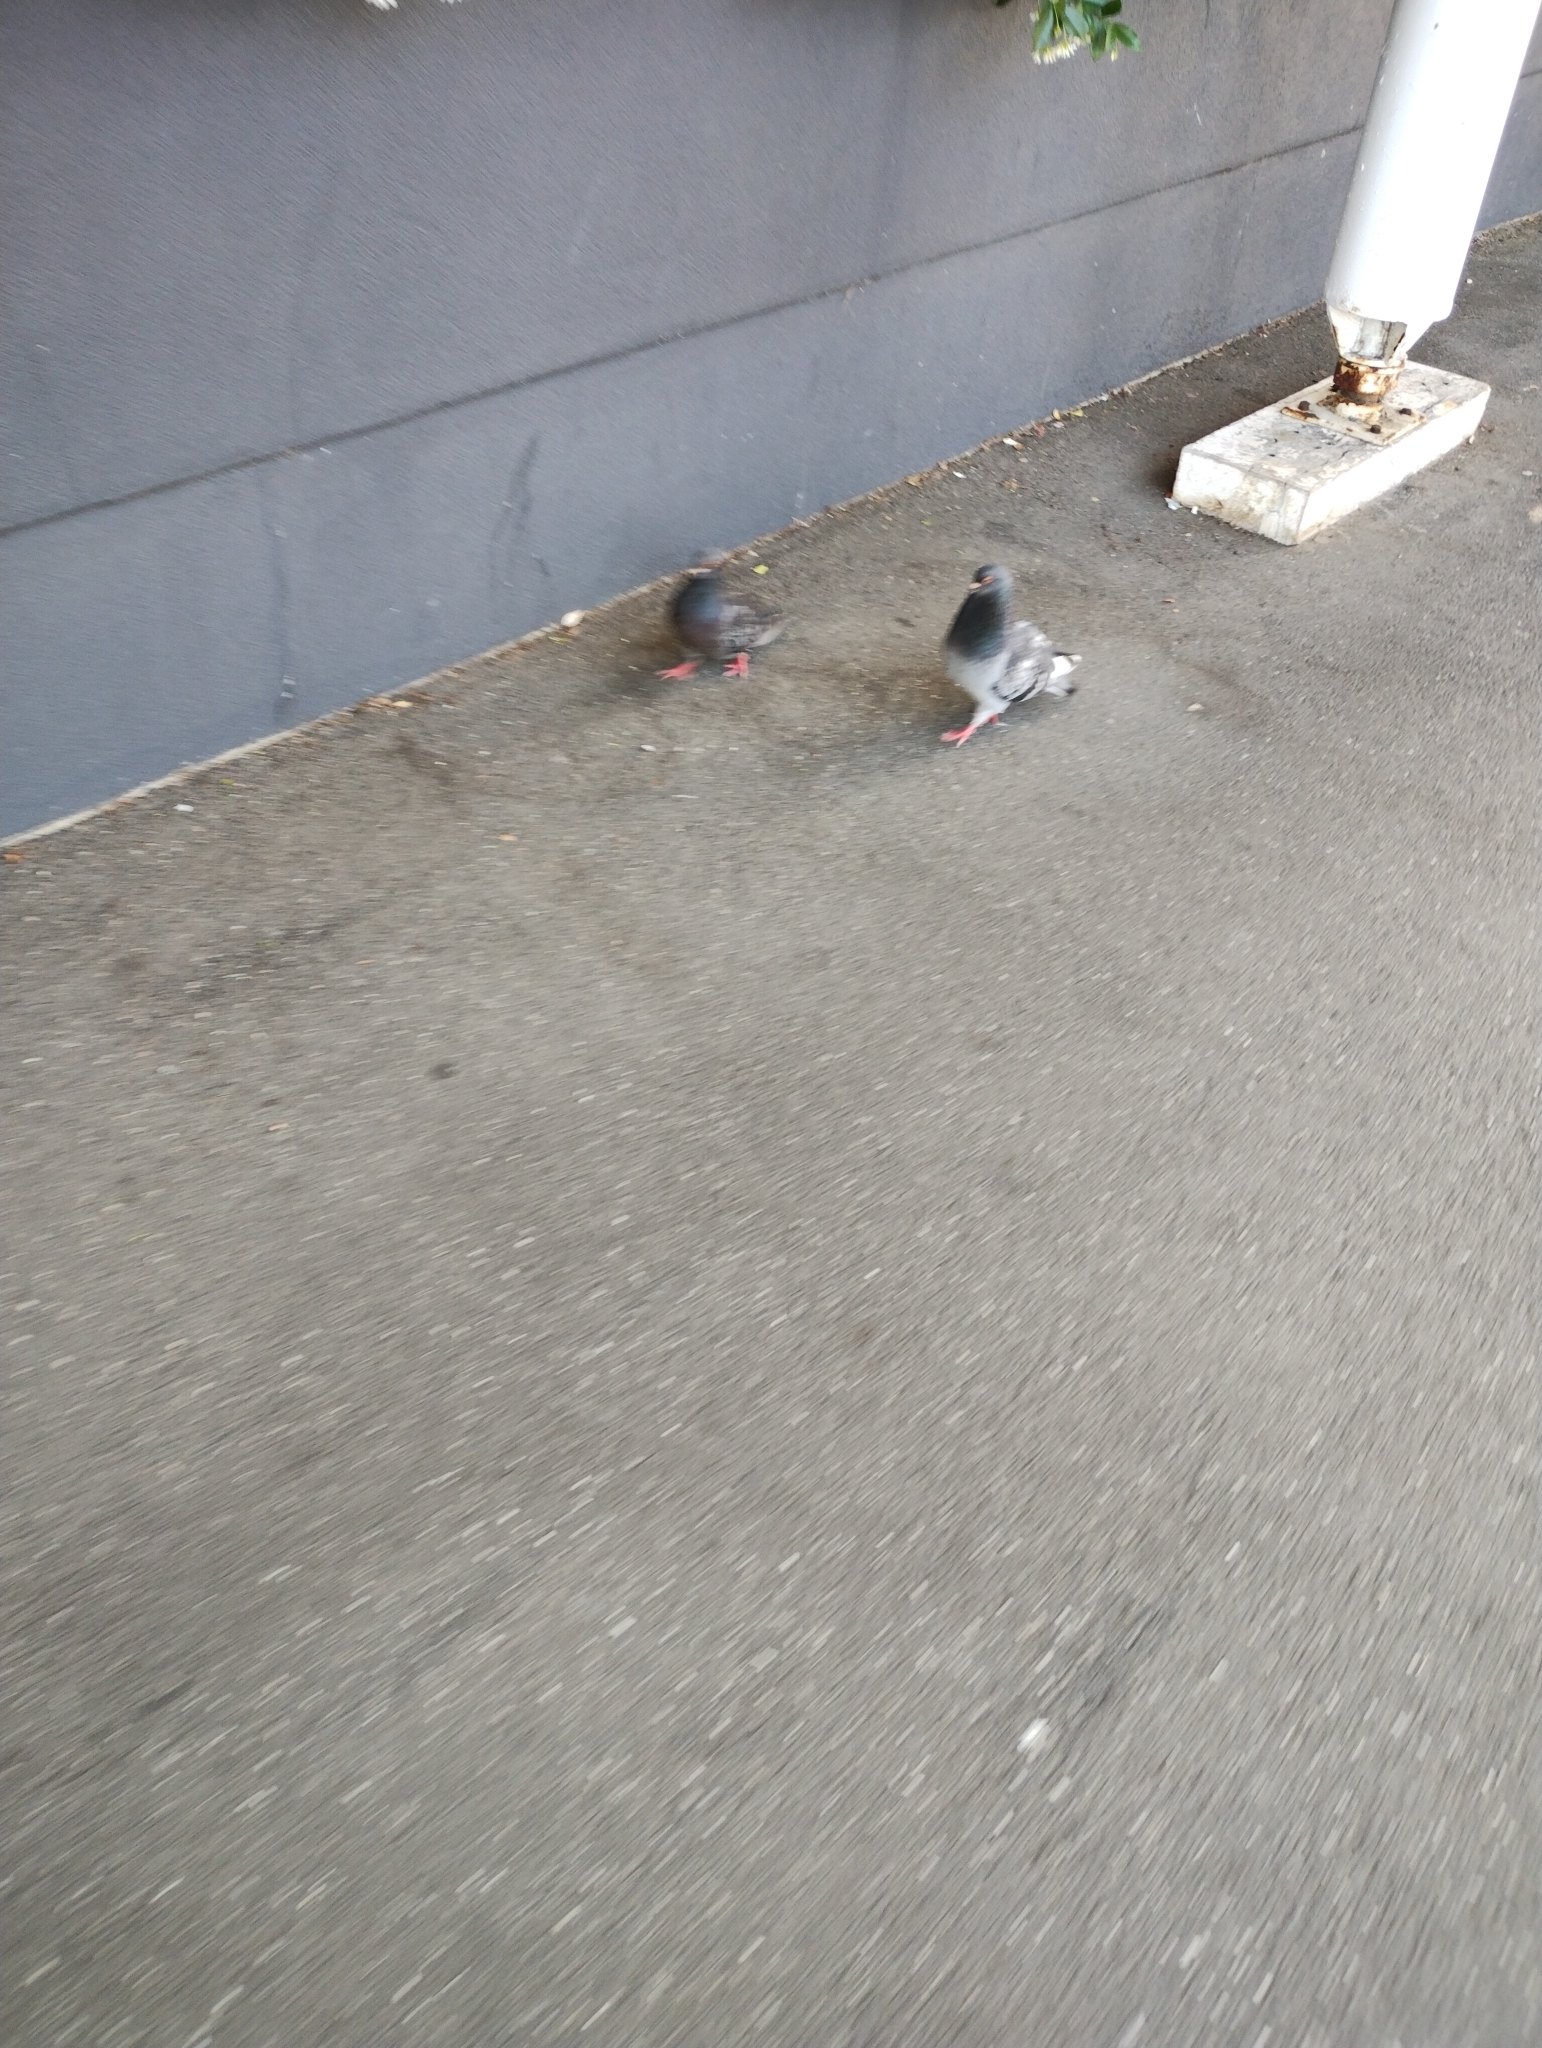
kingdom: Animalia
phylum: Chordata
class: Aves
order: Columbiformes
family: Columbidae
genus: Columba
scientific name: Columba livia
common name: Rock pigeon
